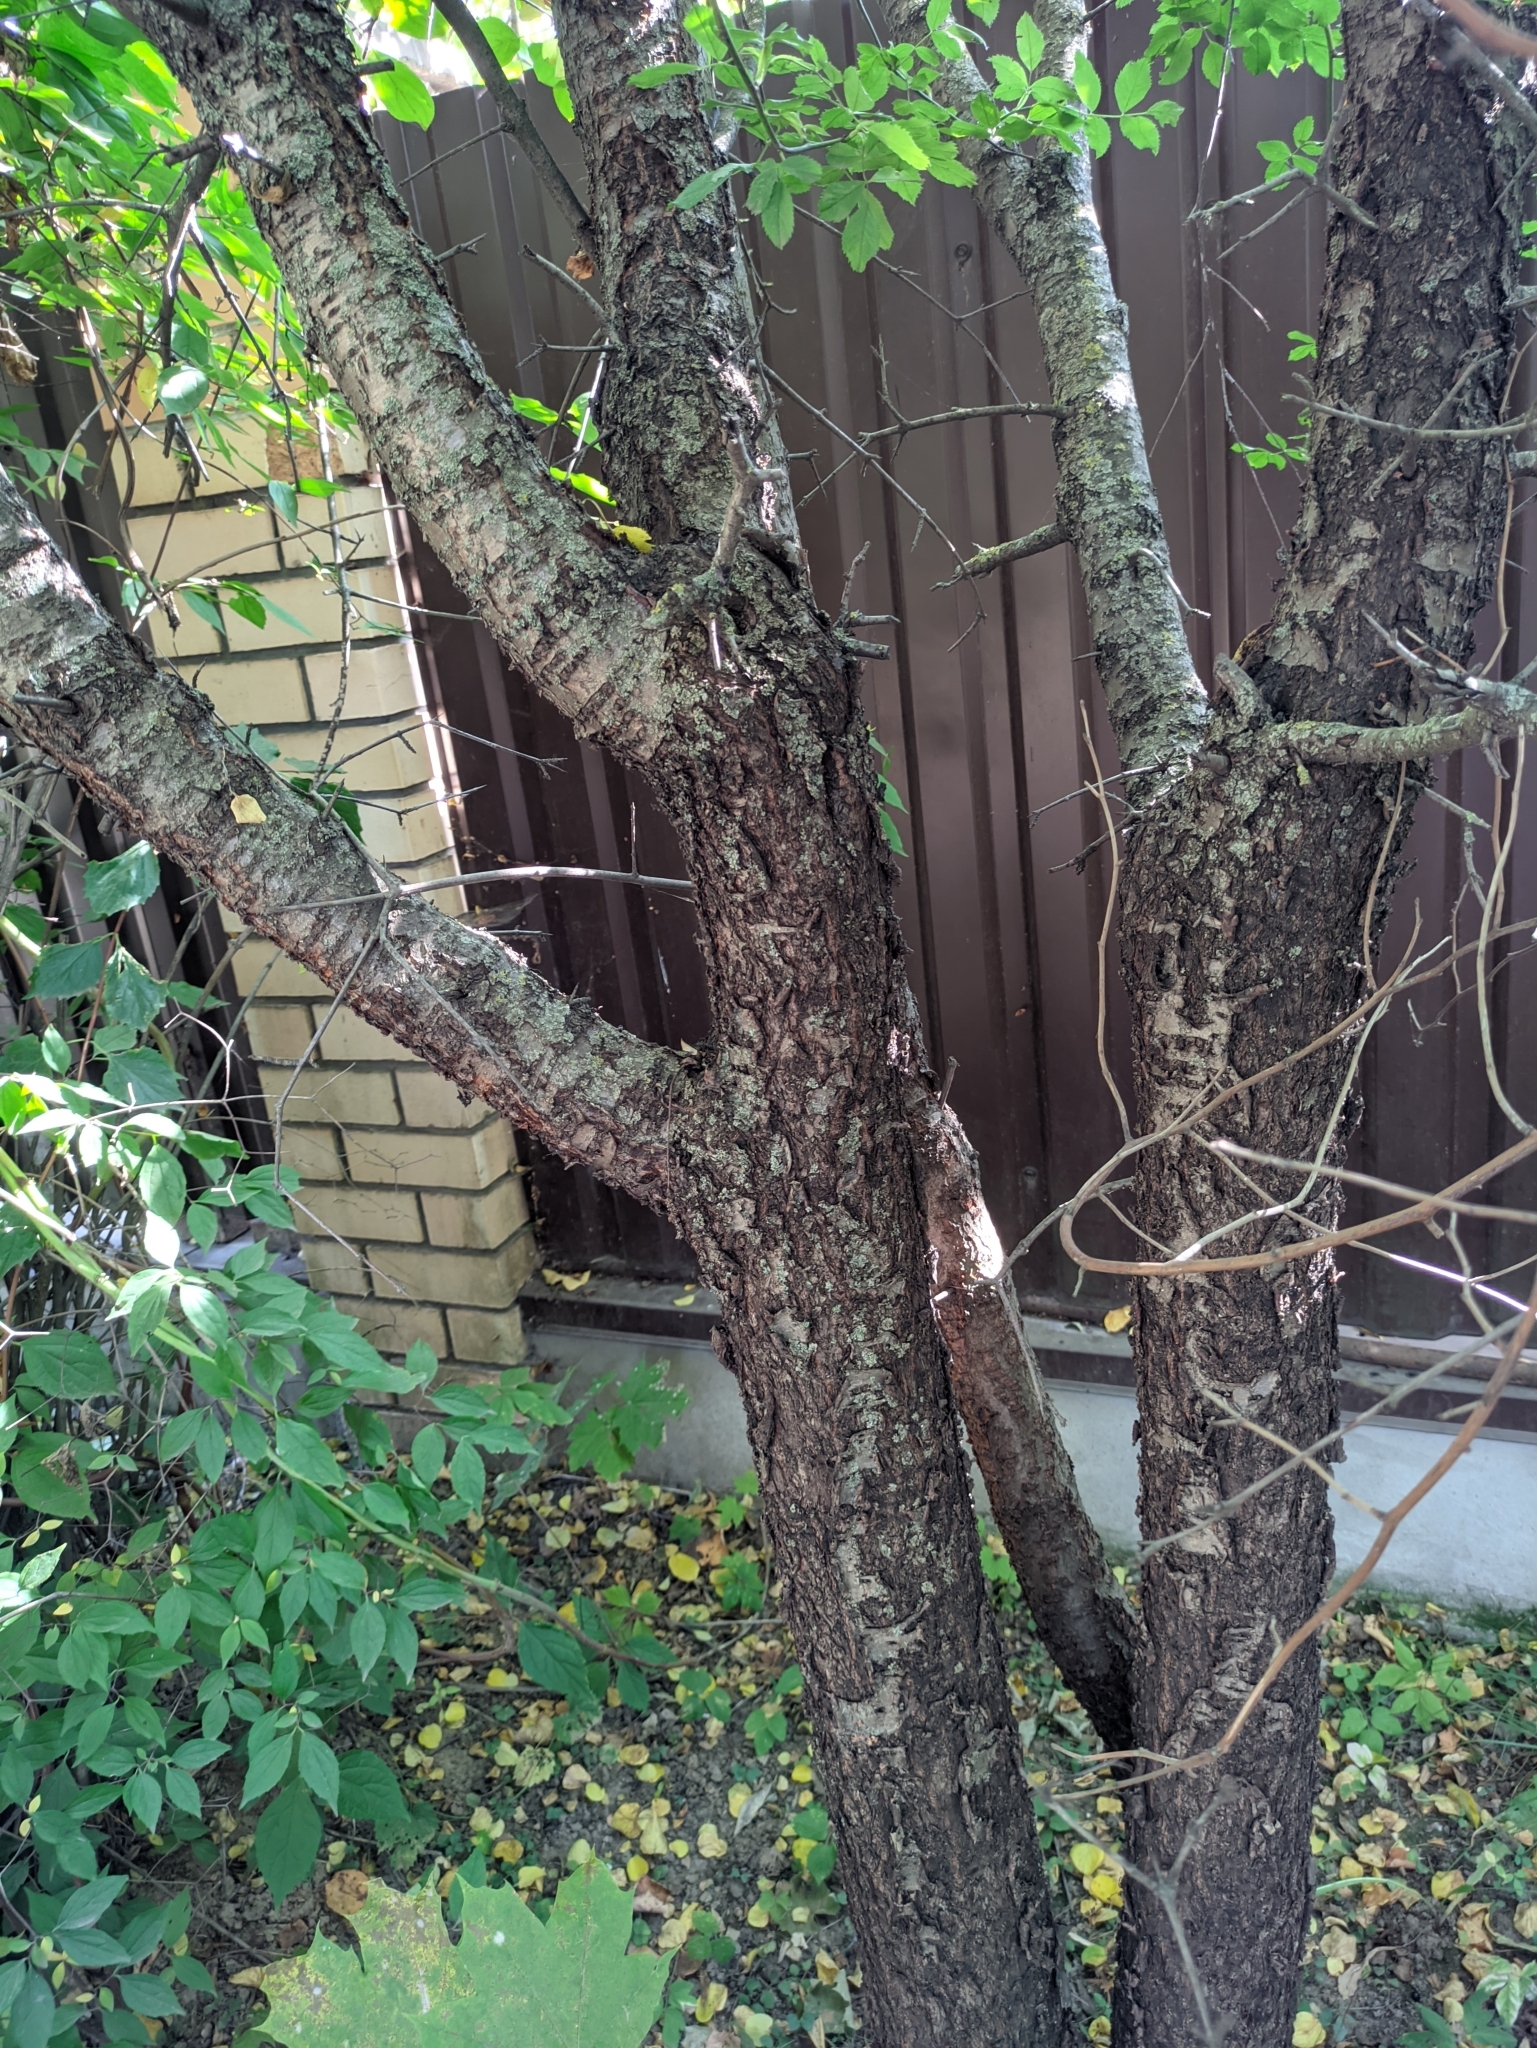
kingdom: Plantae
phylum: Tracheophyta
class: Magnoliopsida
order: Rosales
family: Rhamnaceae
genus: Rhamnus
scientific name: Rhamnus cathartica
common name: Common buckthorn
